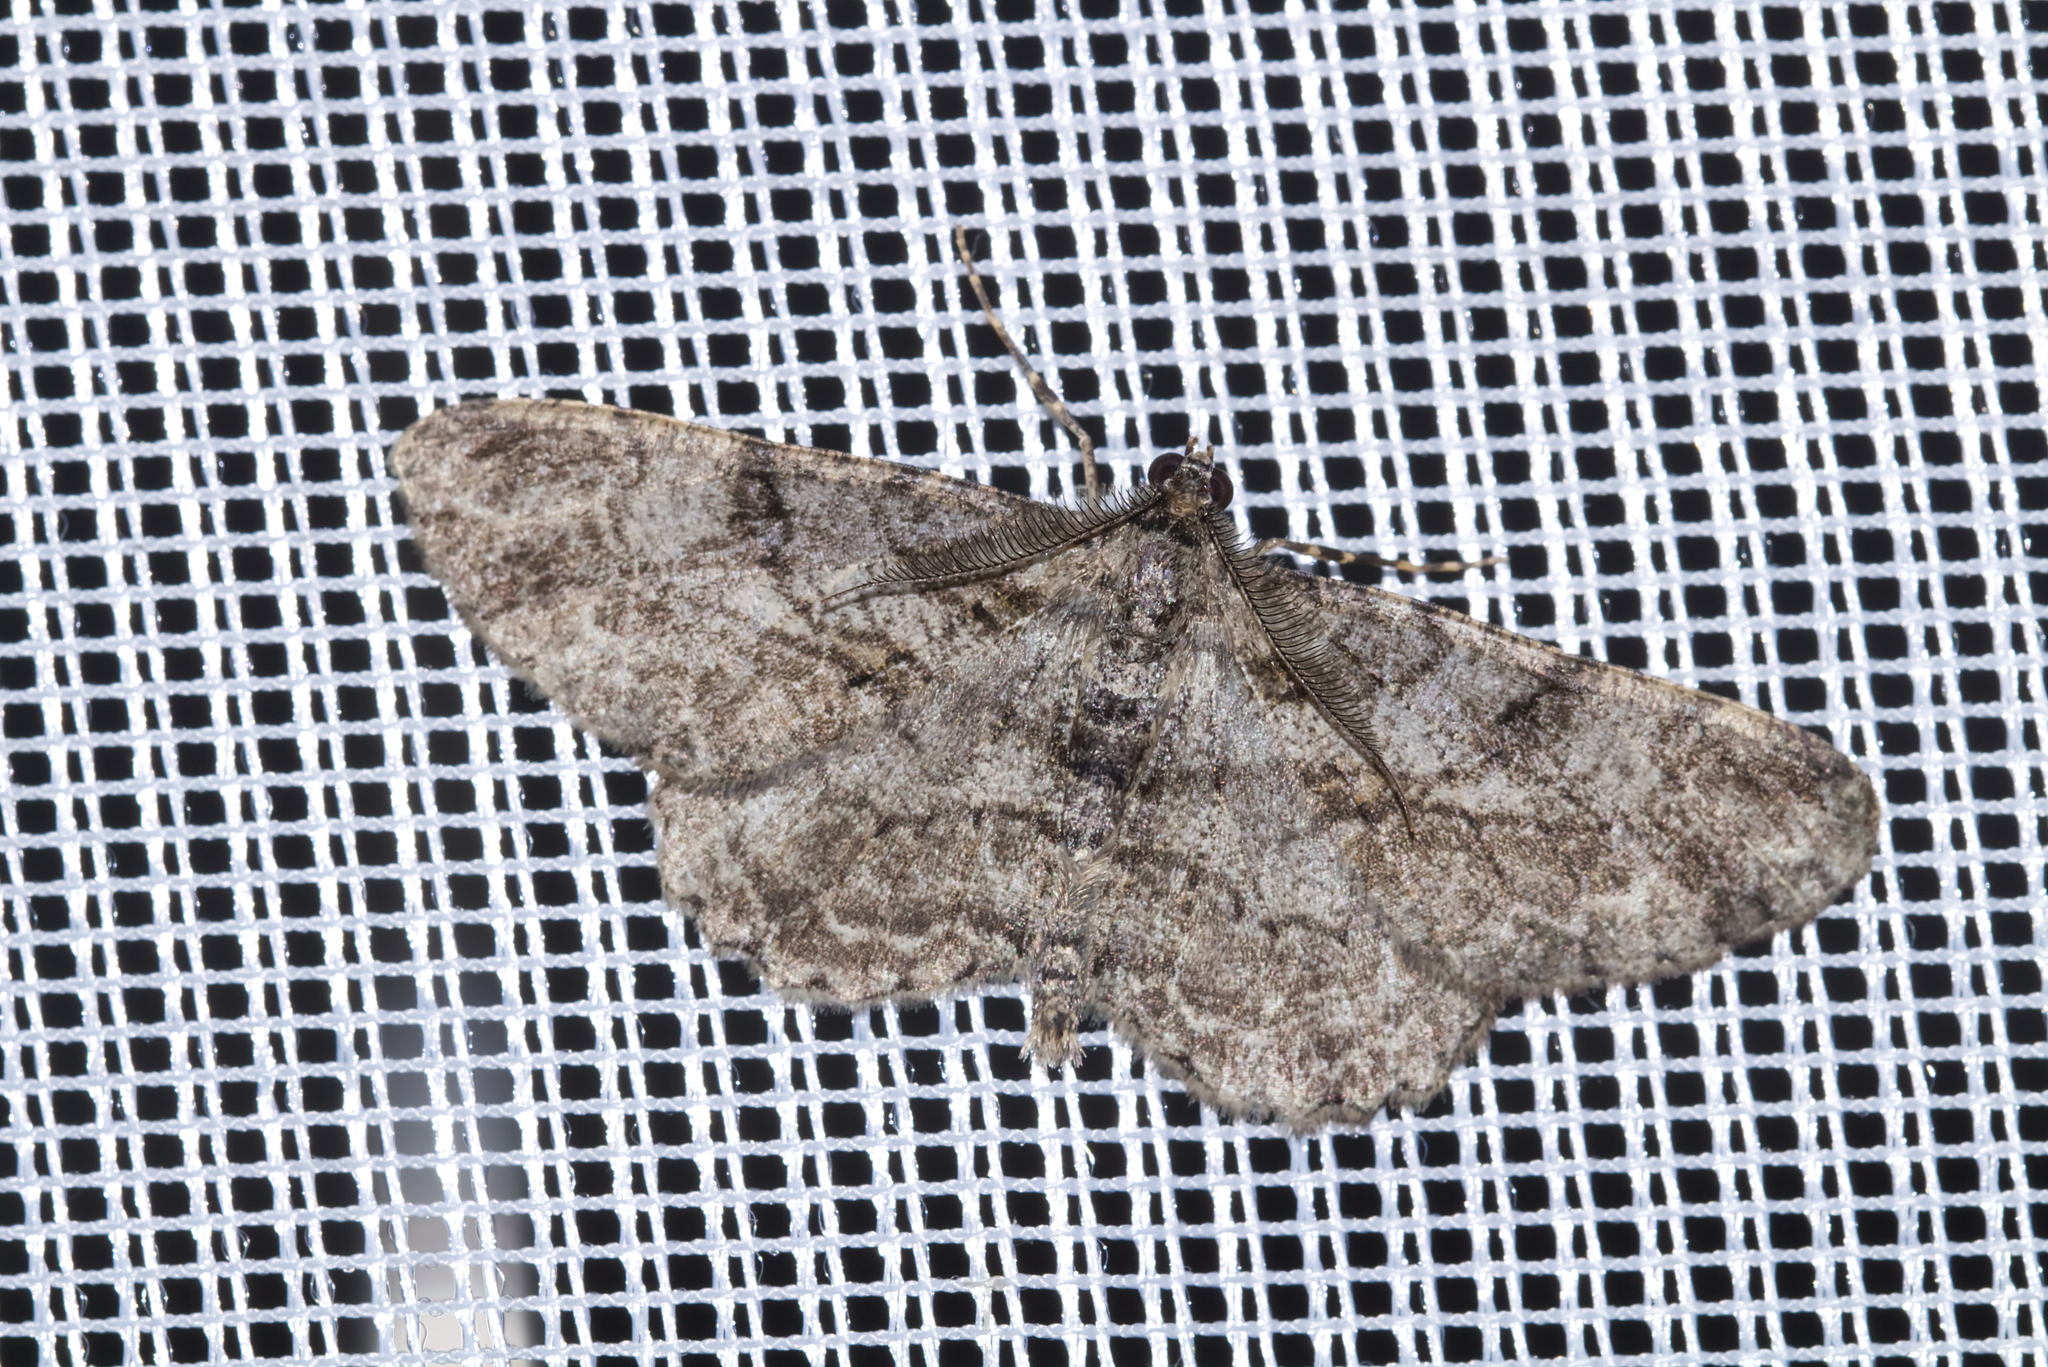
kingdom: Animalia
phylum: Arthropoda
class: Insecta
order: Lepidoptera
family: Geometridae
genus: Peribatodes
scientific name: Peribatodes rhomboidaria
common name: Willow beauty
